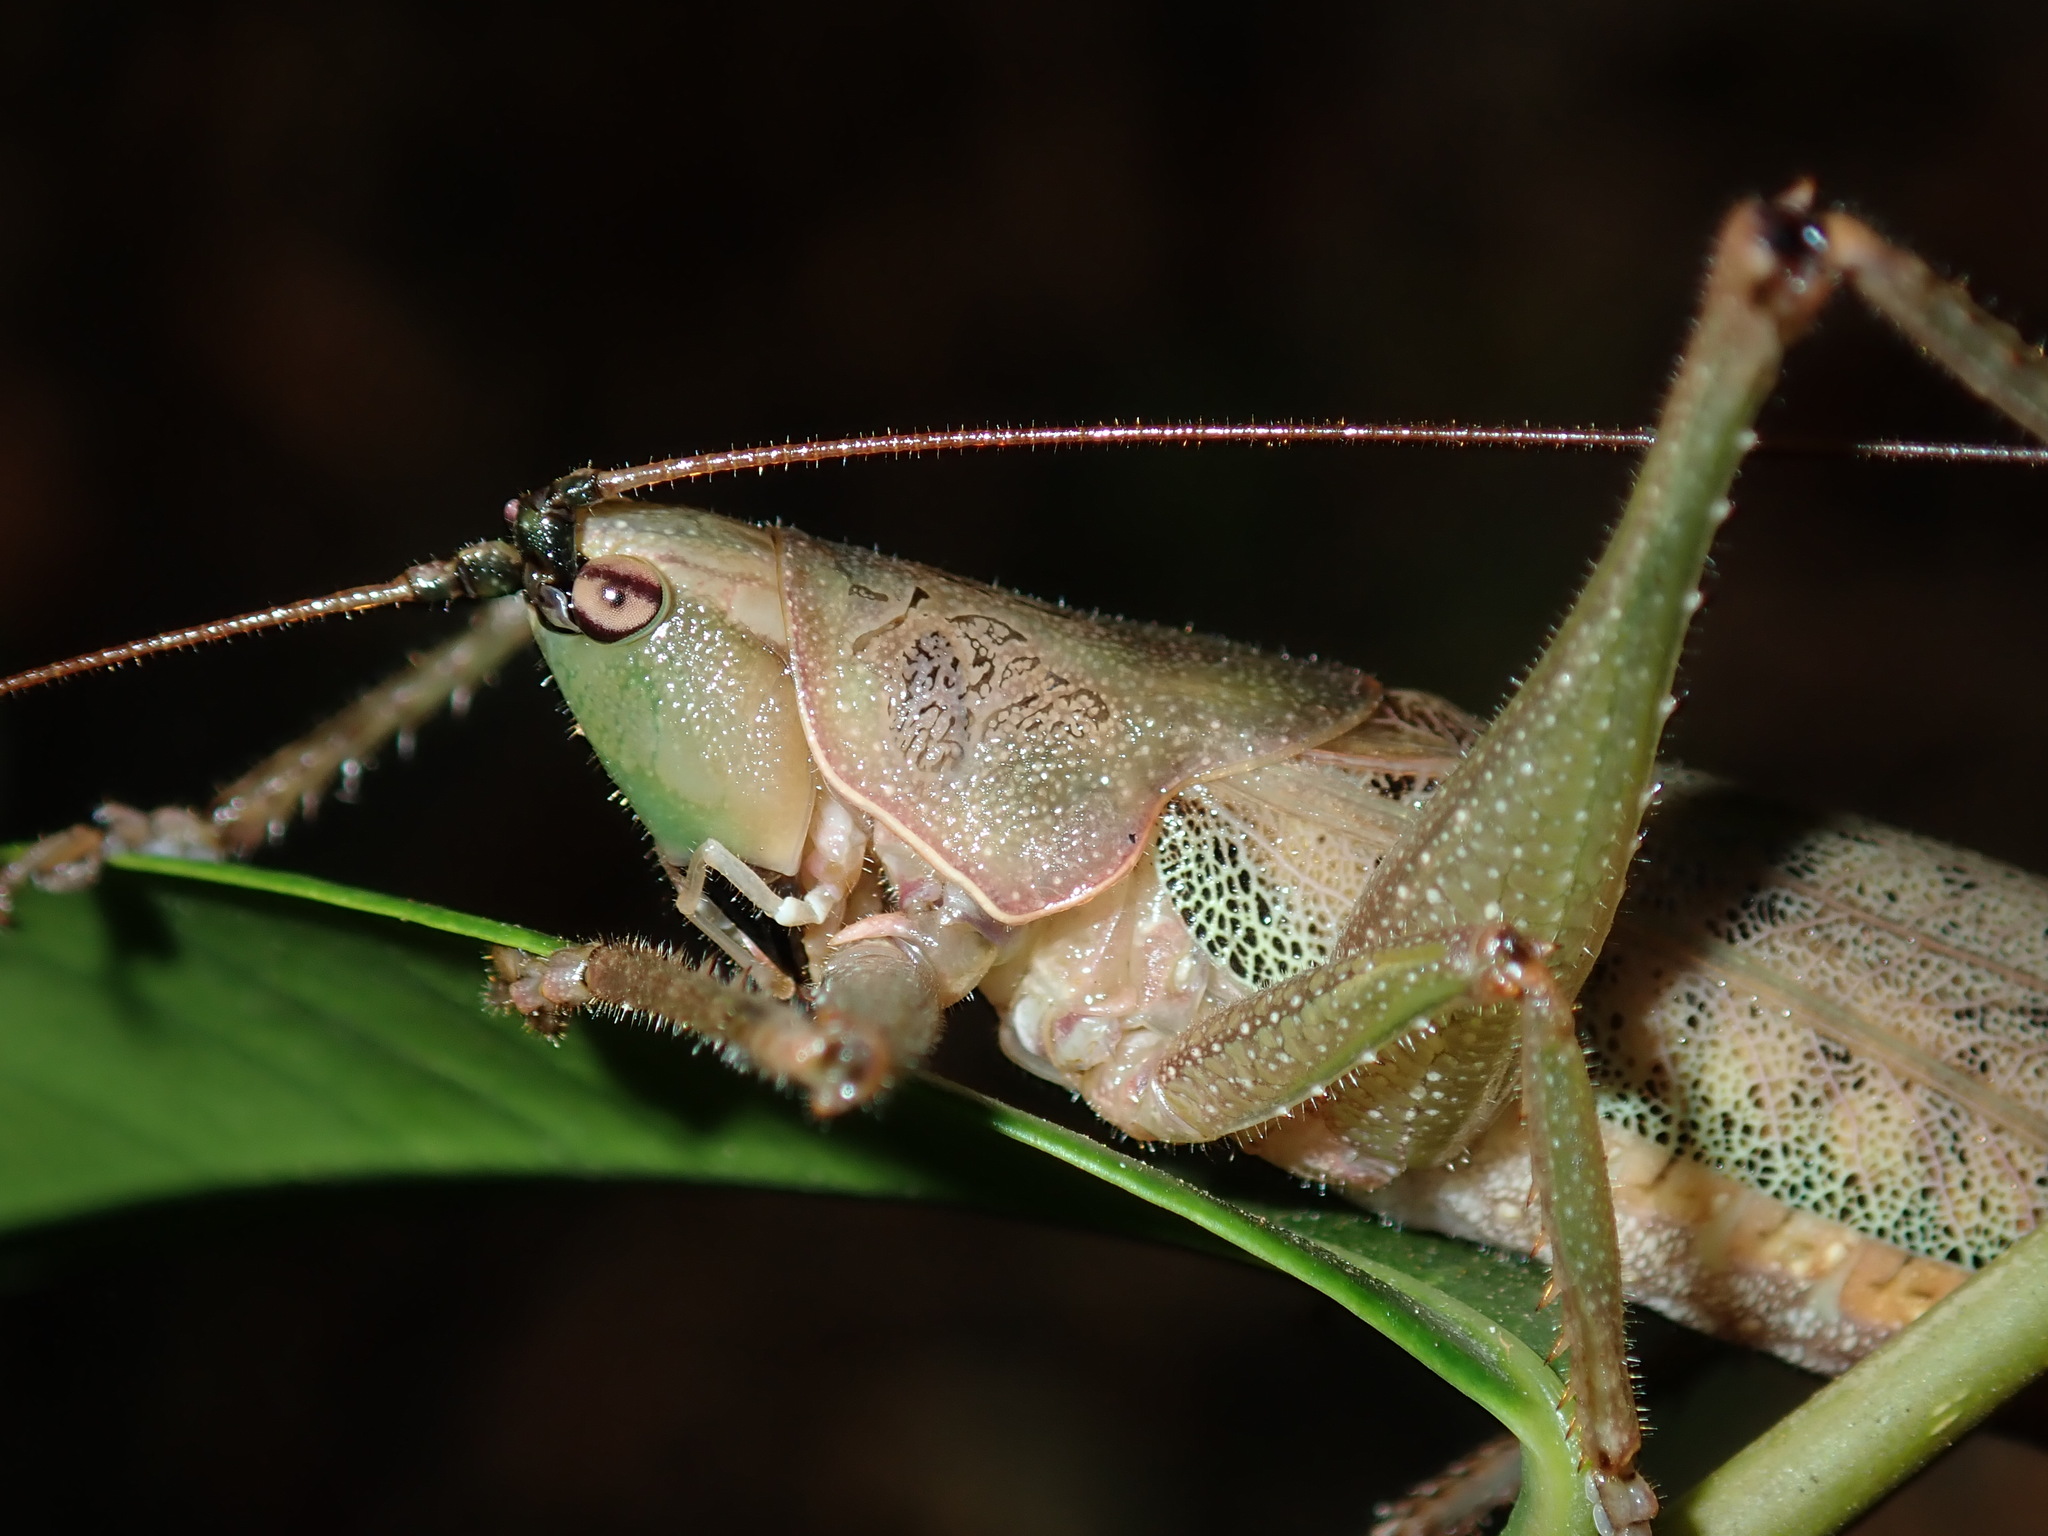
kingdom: Animalia
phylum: Arthropoda
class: Insecta
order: Orthoptera
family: Tettigoniidae
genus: Austrosalomona
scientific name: Austrosalomona falcata
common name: Olive-green coastal katydid
